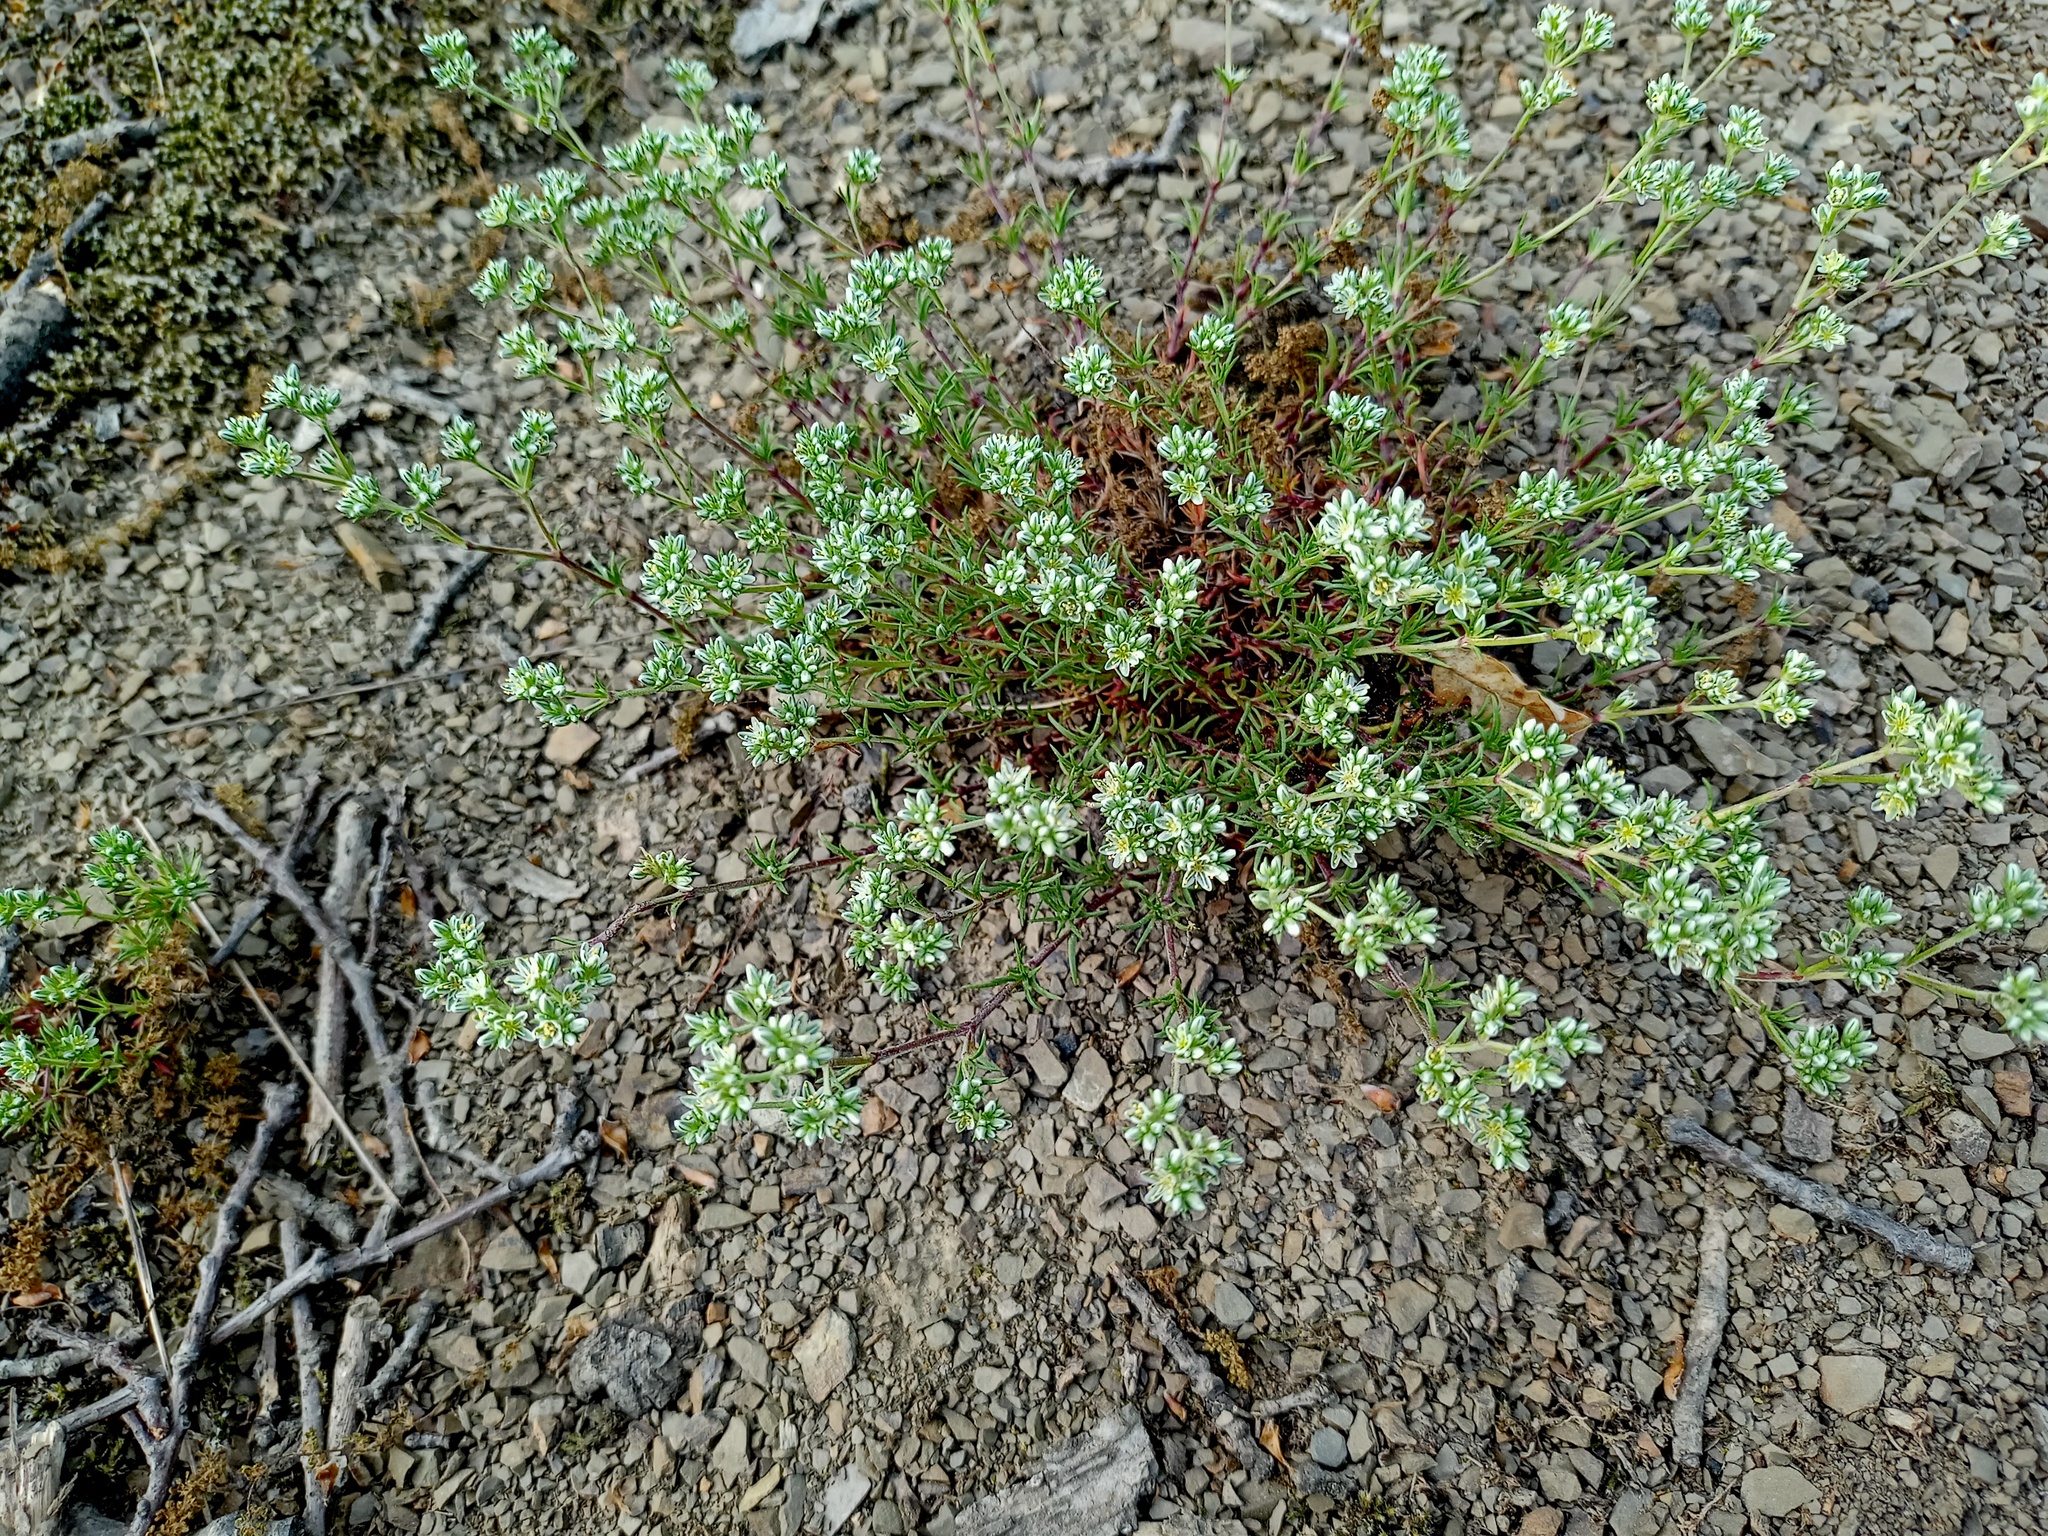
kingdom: Plantae
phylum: Tracheophyta
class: Magnoliopsida
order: Caryophyllales
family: Caryophyllaceae
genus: Scleranthus
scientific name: Scleranthus perennis
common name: Perennial knawel
